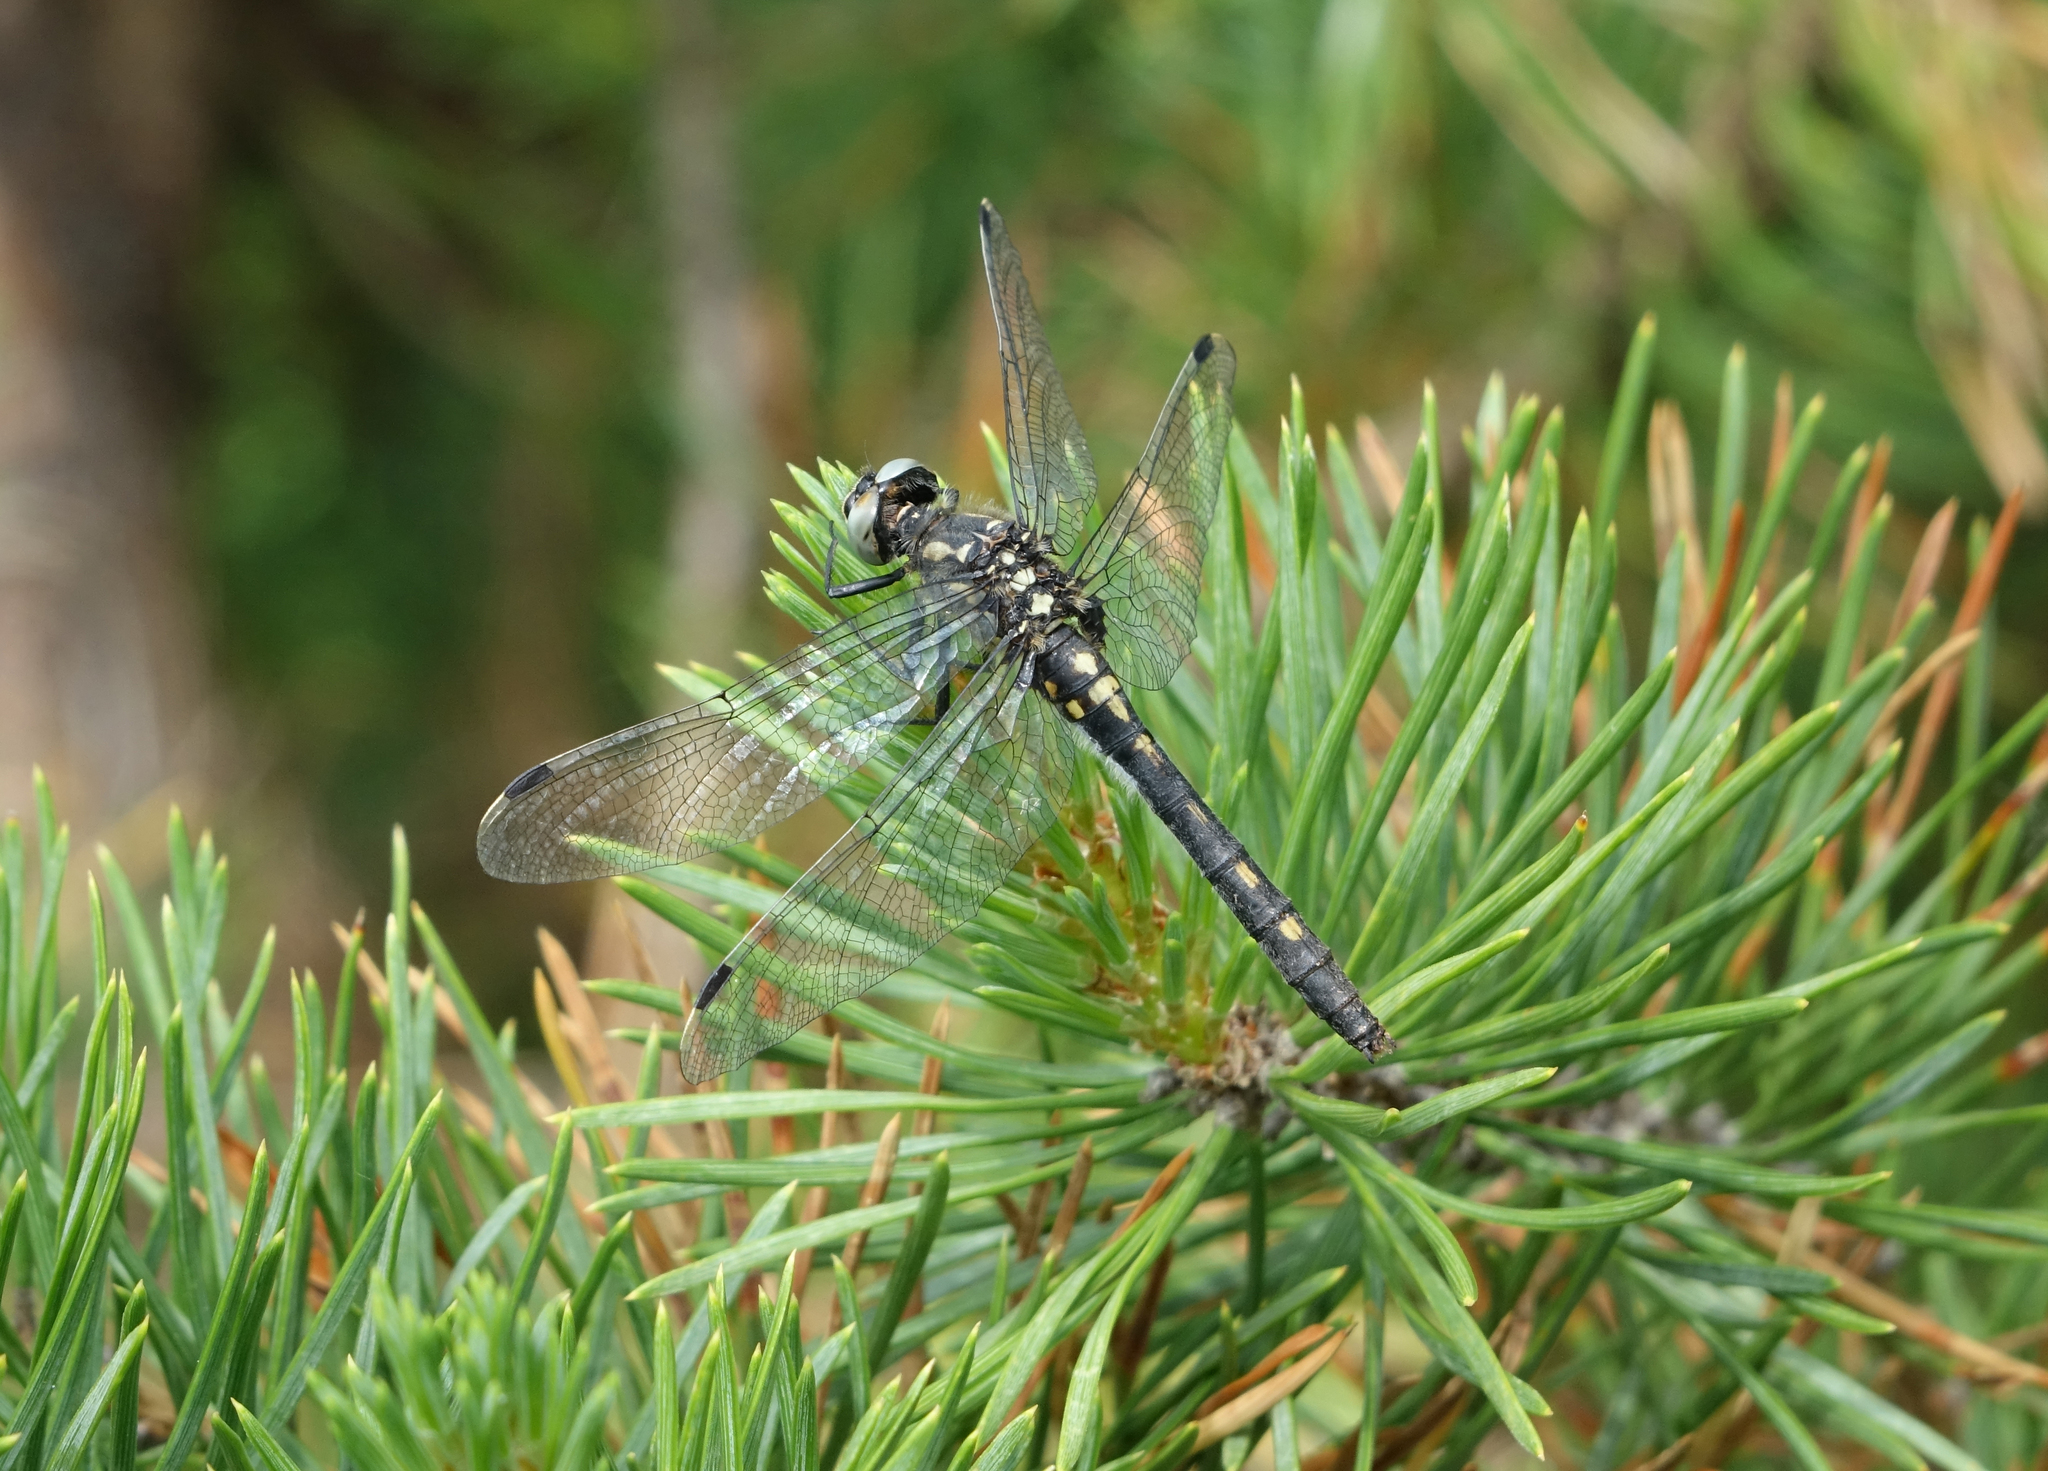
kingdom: Animalia
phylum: Arthropoda
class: Insecta
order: Odonata
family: Libellulidae
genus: Leucorrhinia
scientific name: Leucorrhinia orientalis
